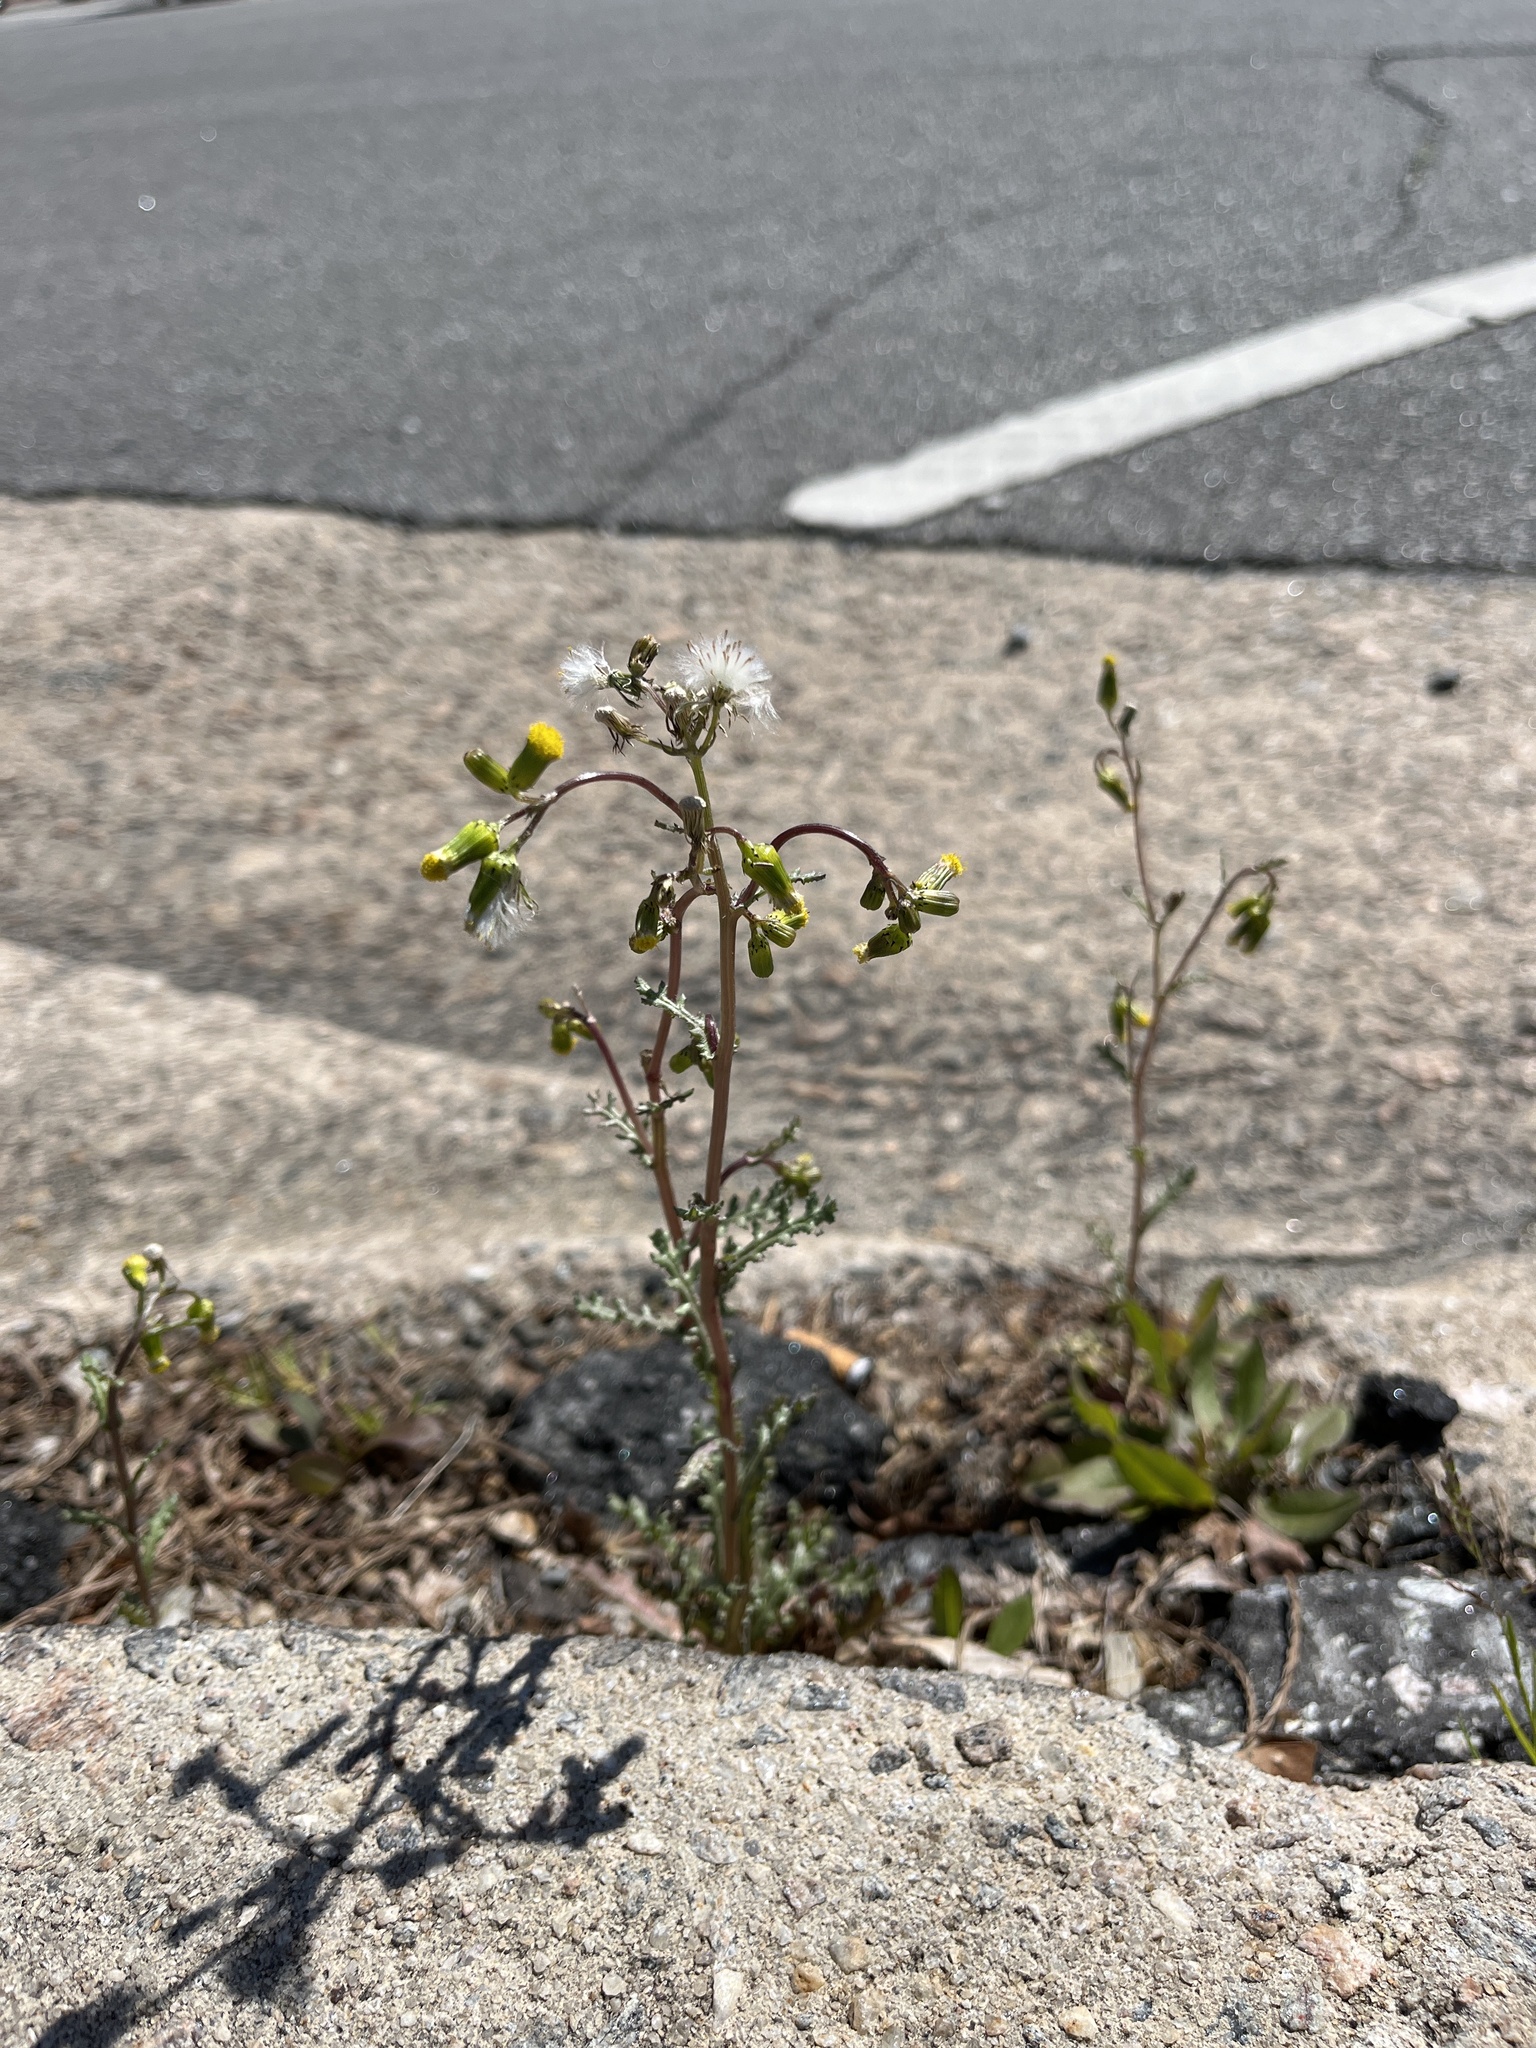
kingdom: Plantae
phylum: Tracheophyta
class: Magnoliopsida
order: Asterales
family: Asteraceae
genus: Senecio
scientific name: Senecio vulgaris
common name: Old-man-in-the-spring
